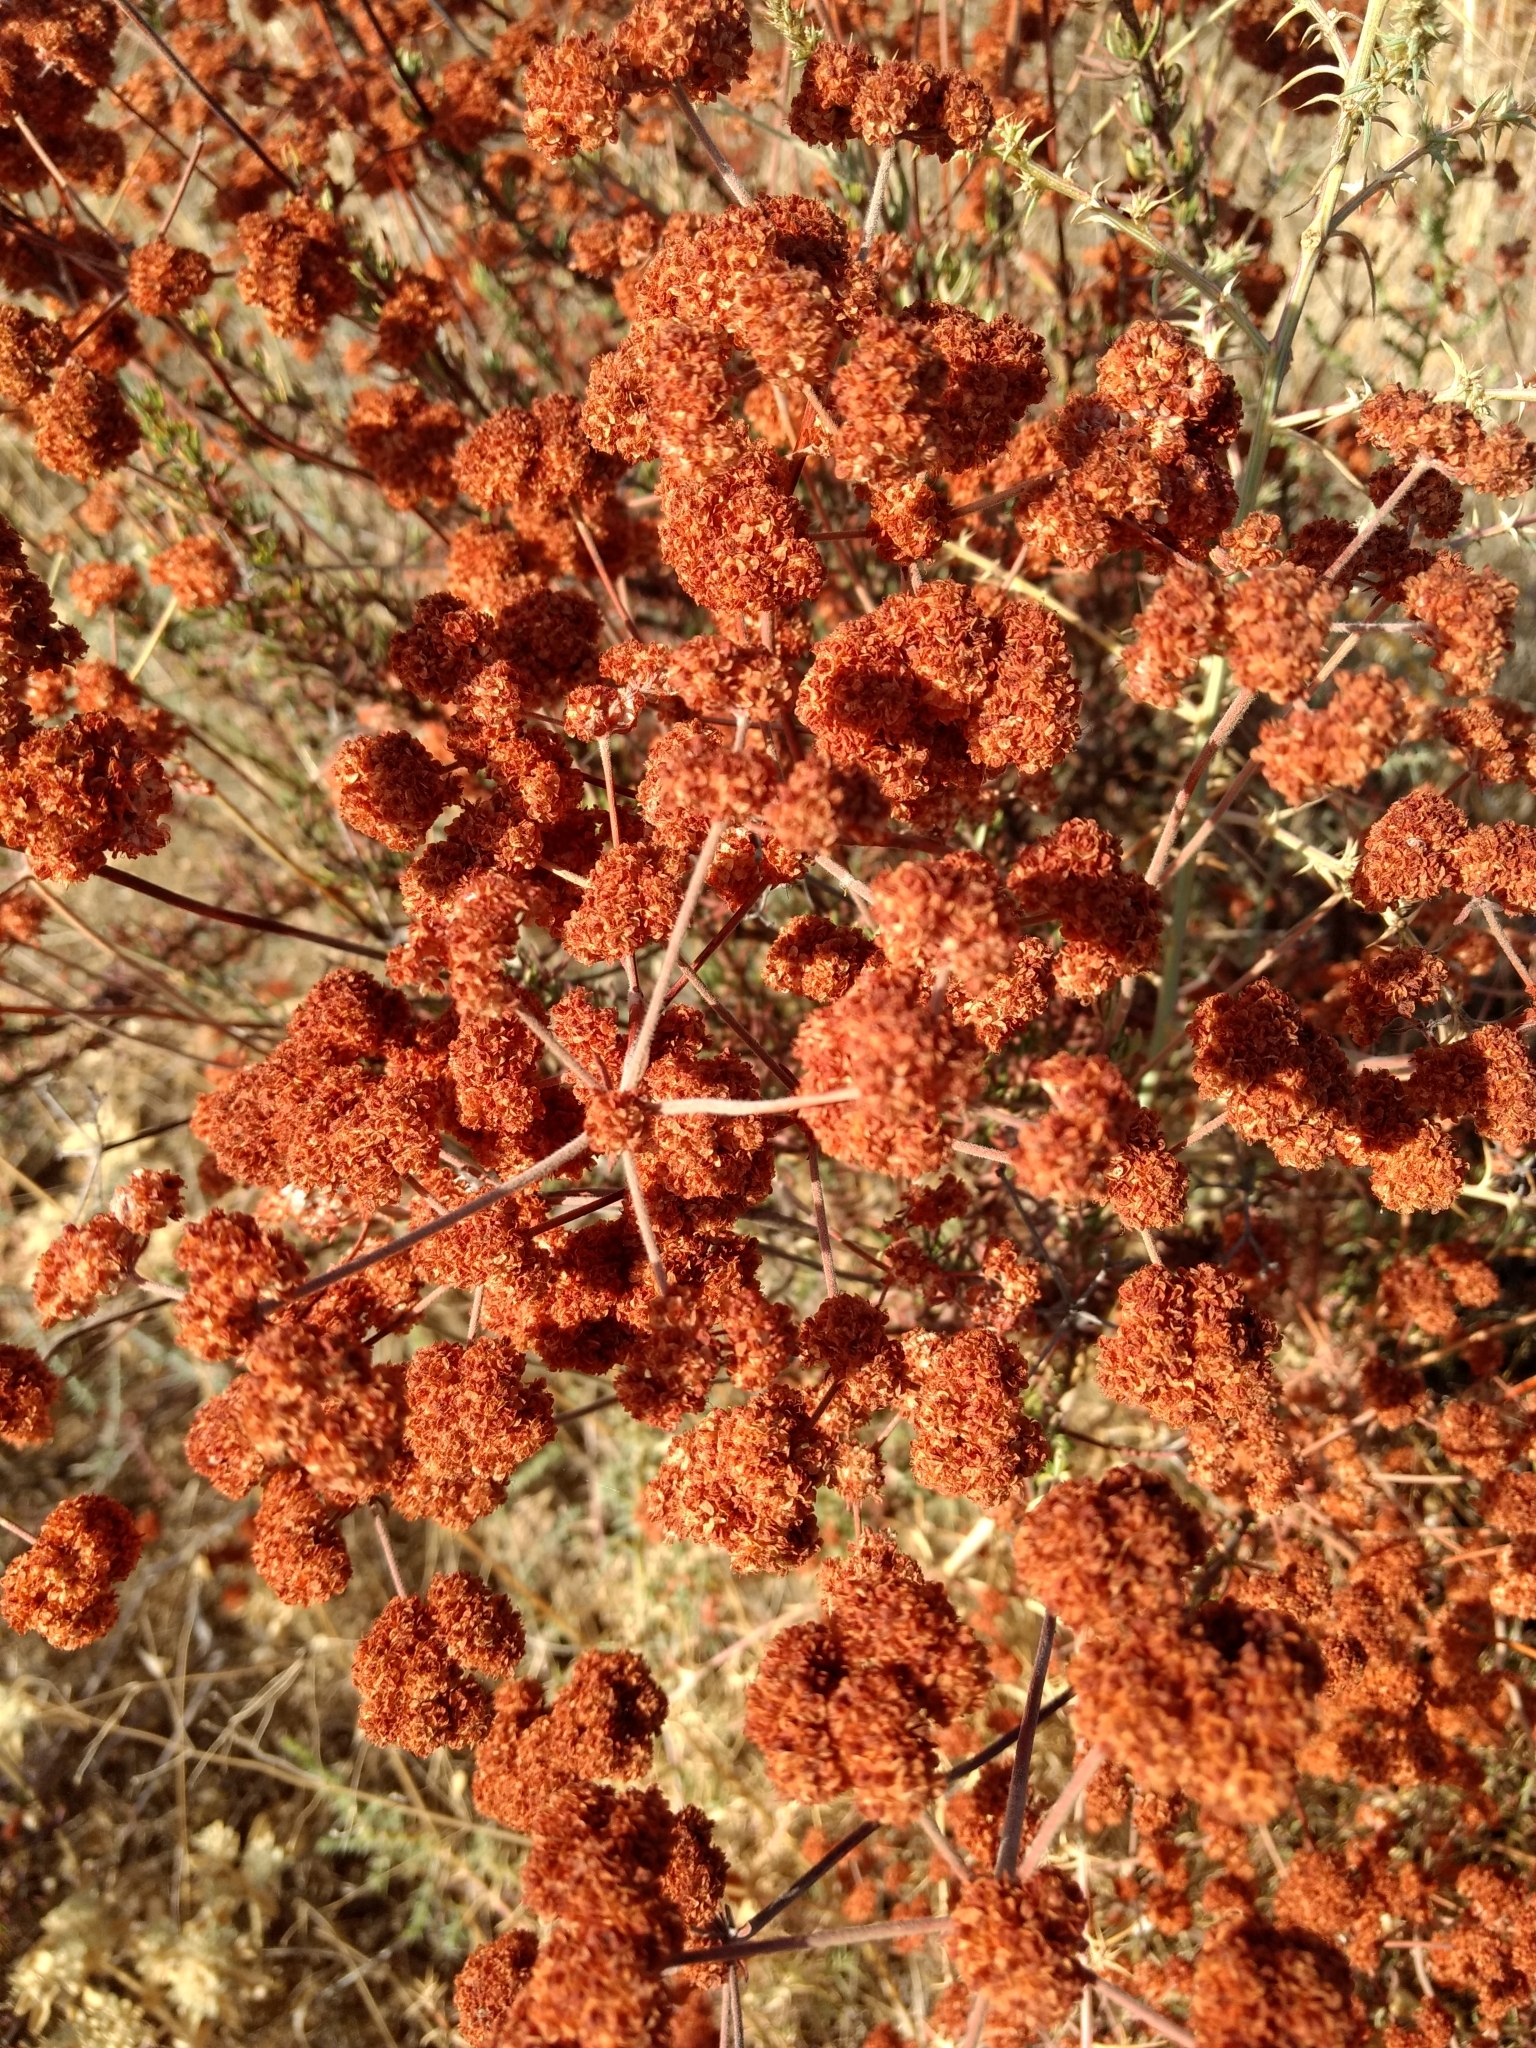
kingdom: Plantae
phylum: Tracheophyta
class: Magnoliopsida
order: Caryophyllales
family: Polygonaceae
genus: Eriogonum
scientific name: Eriogonum fasciculatum
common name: California wild buckwheat
